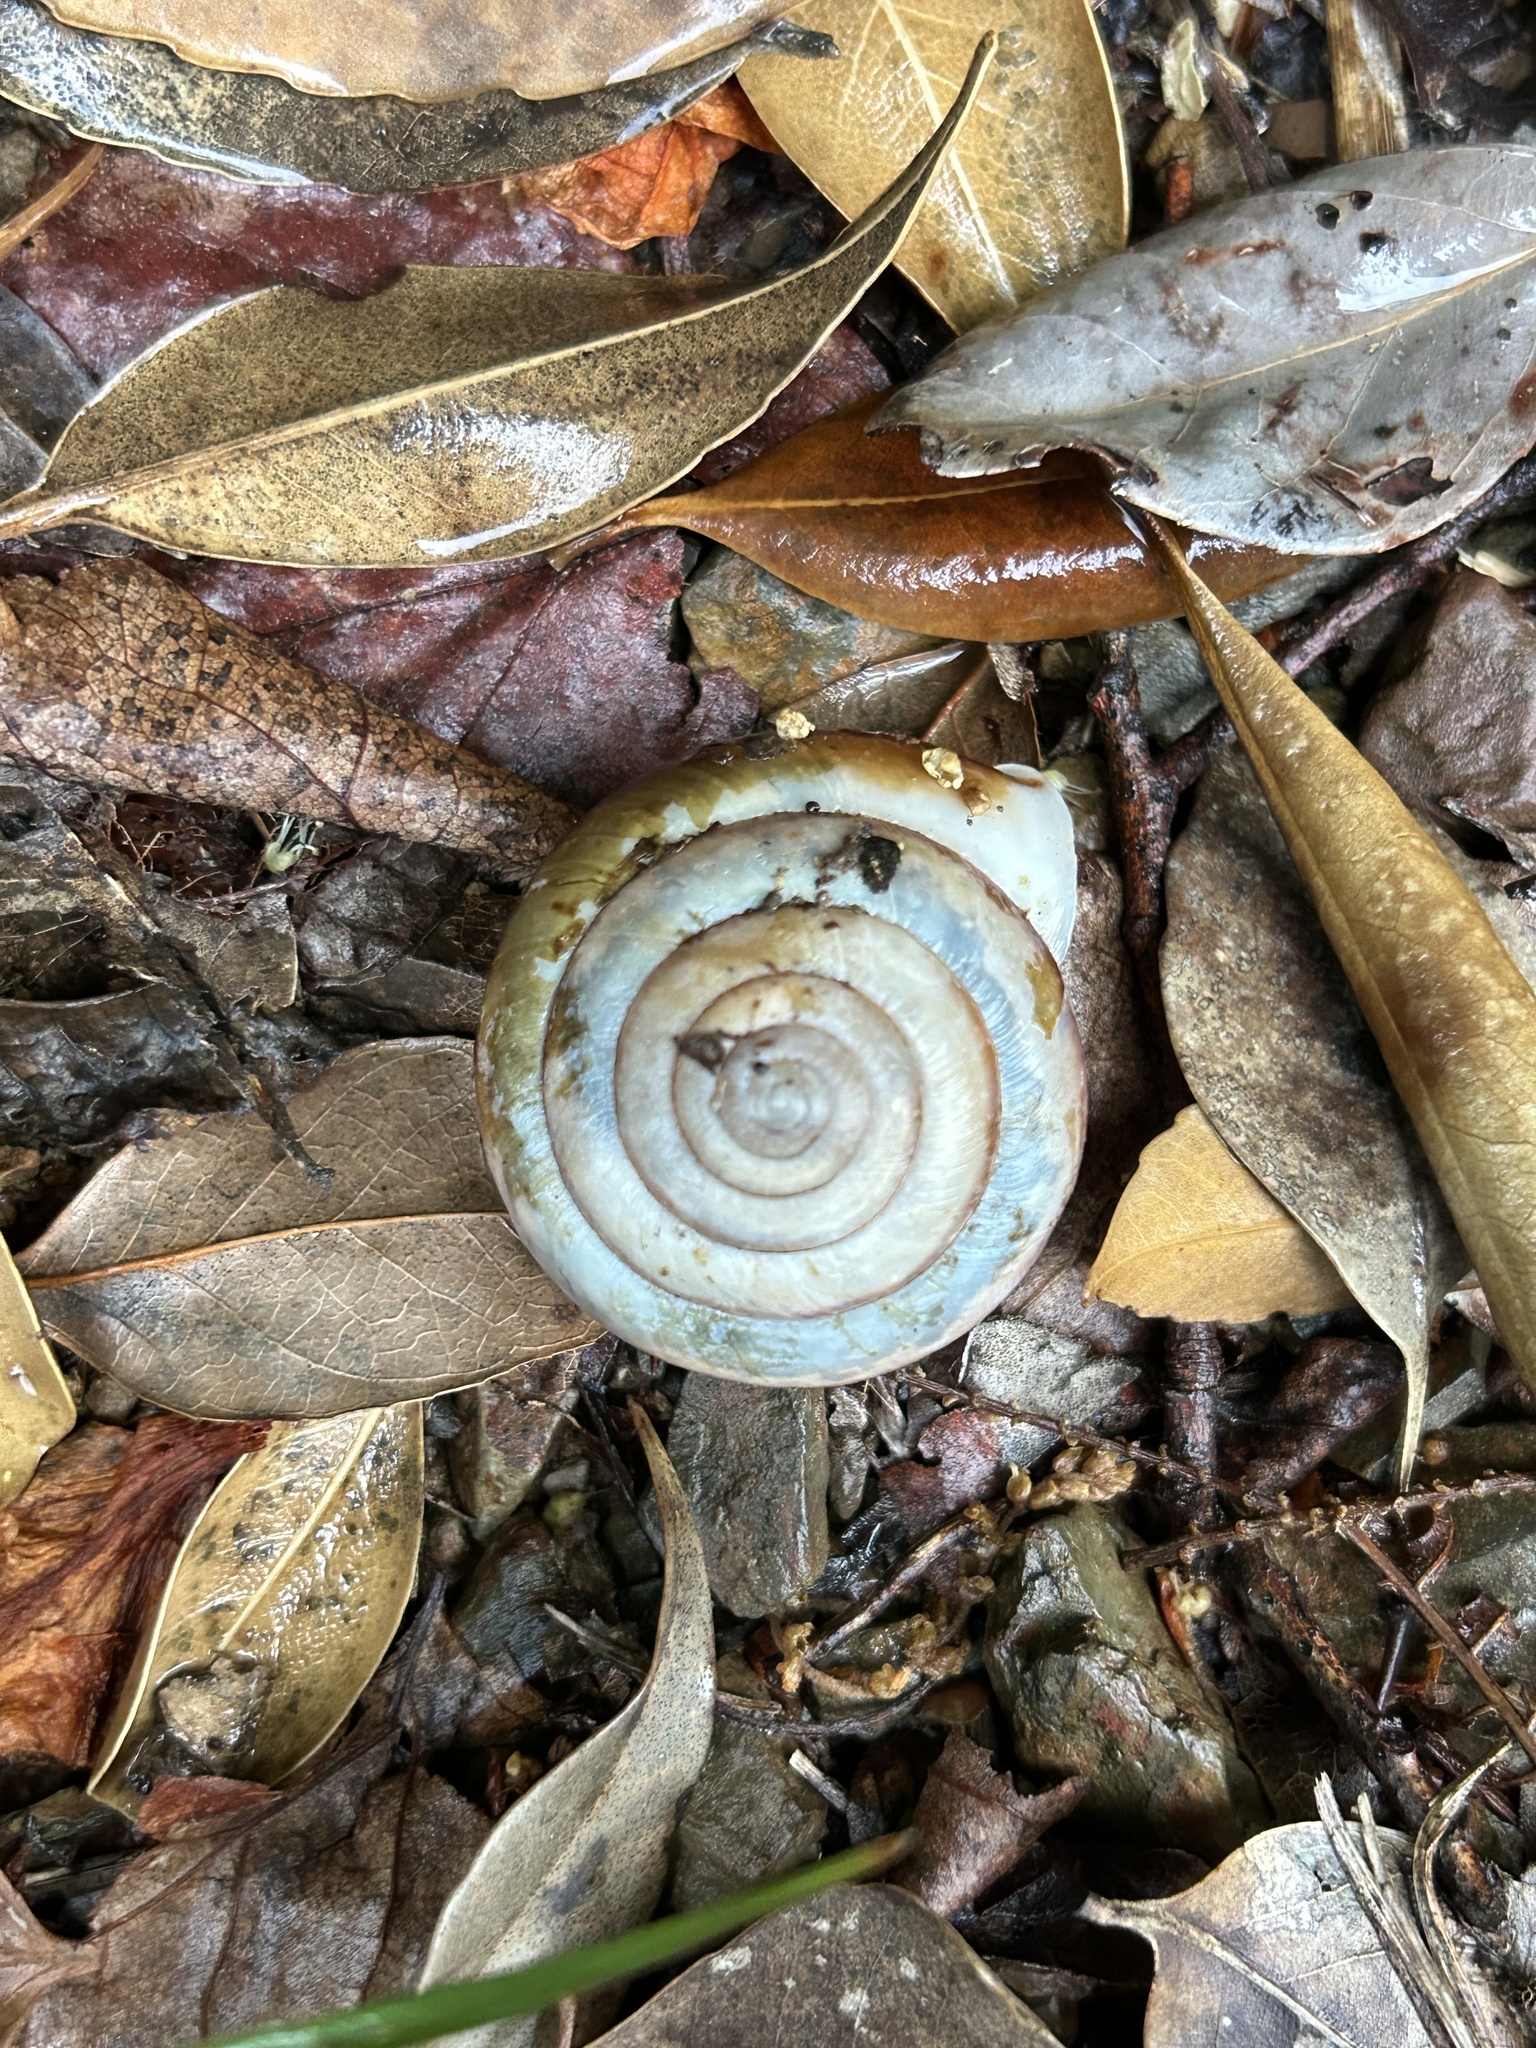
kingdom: Animalia
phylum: Mollusca
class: Gastropoda
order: Stylommatophora
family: Camaenidae
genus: Satsuma
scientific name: Satsuma myomphala
